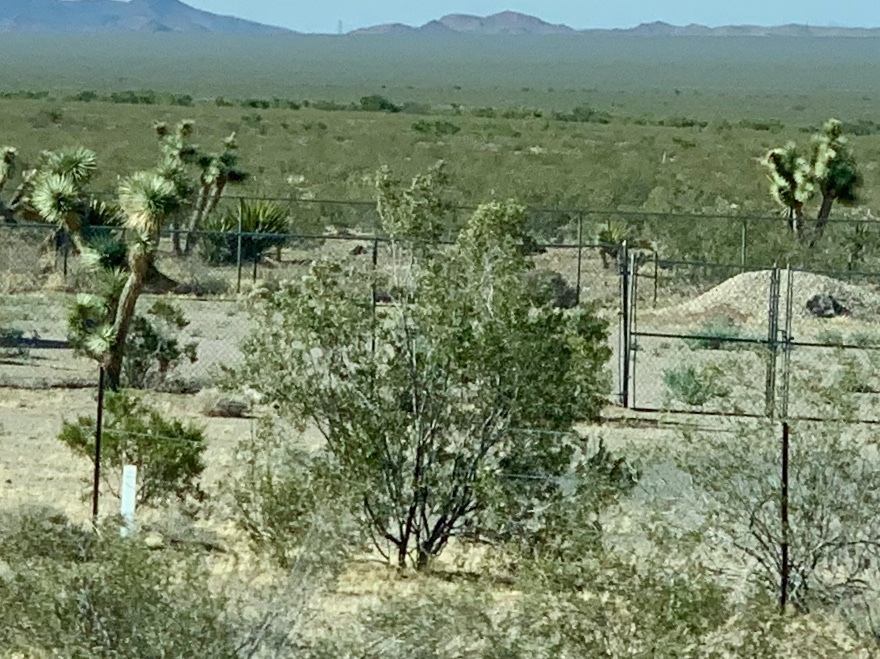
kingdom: Plantae
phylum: Tracheophyta
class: Magnoliopsida
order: Zygophyllales
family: Zygophyllaceae
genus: Larrea
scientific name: Larrea tridentata
